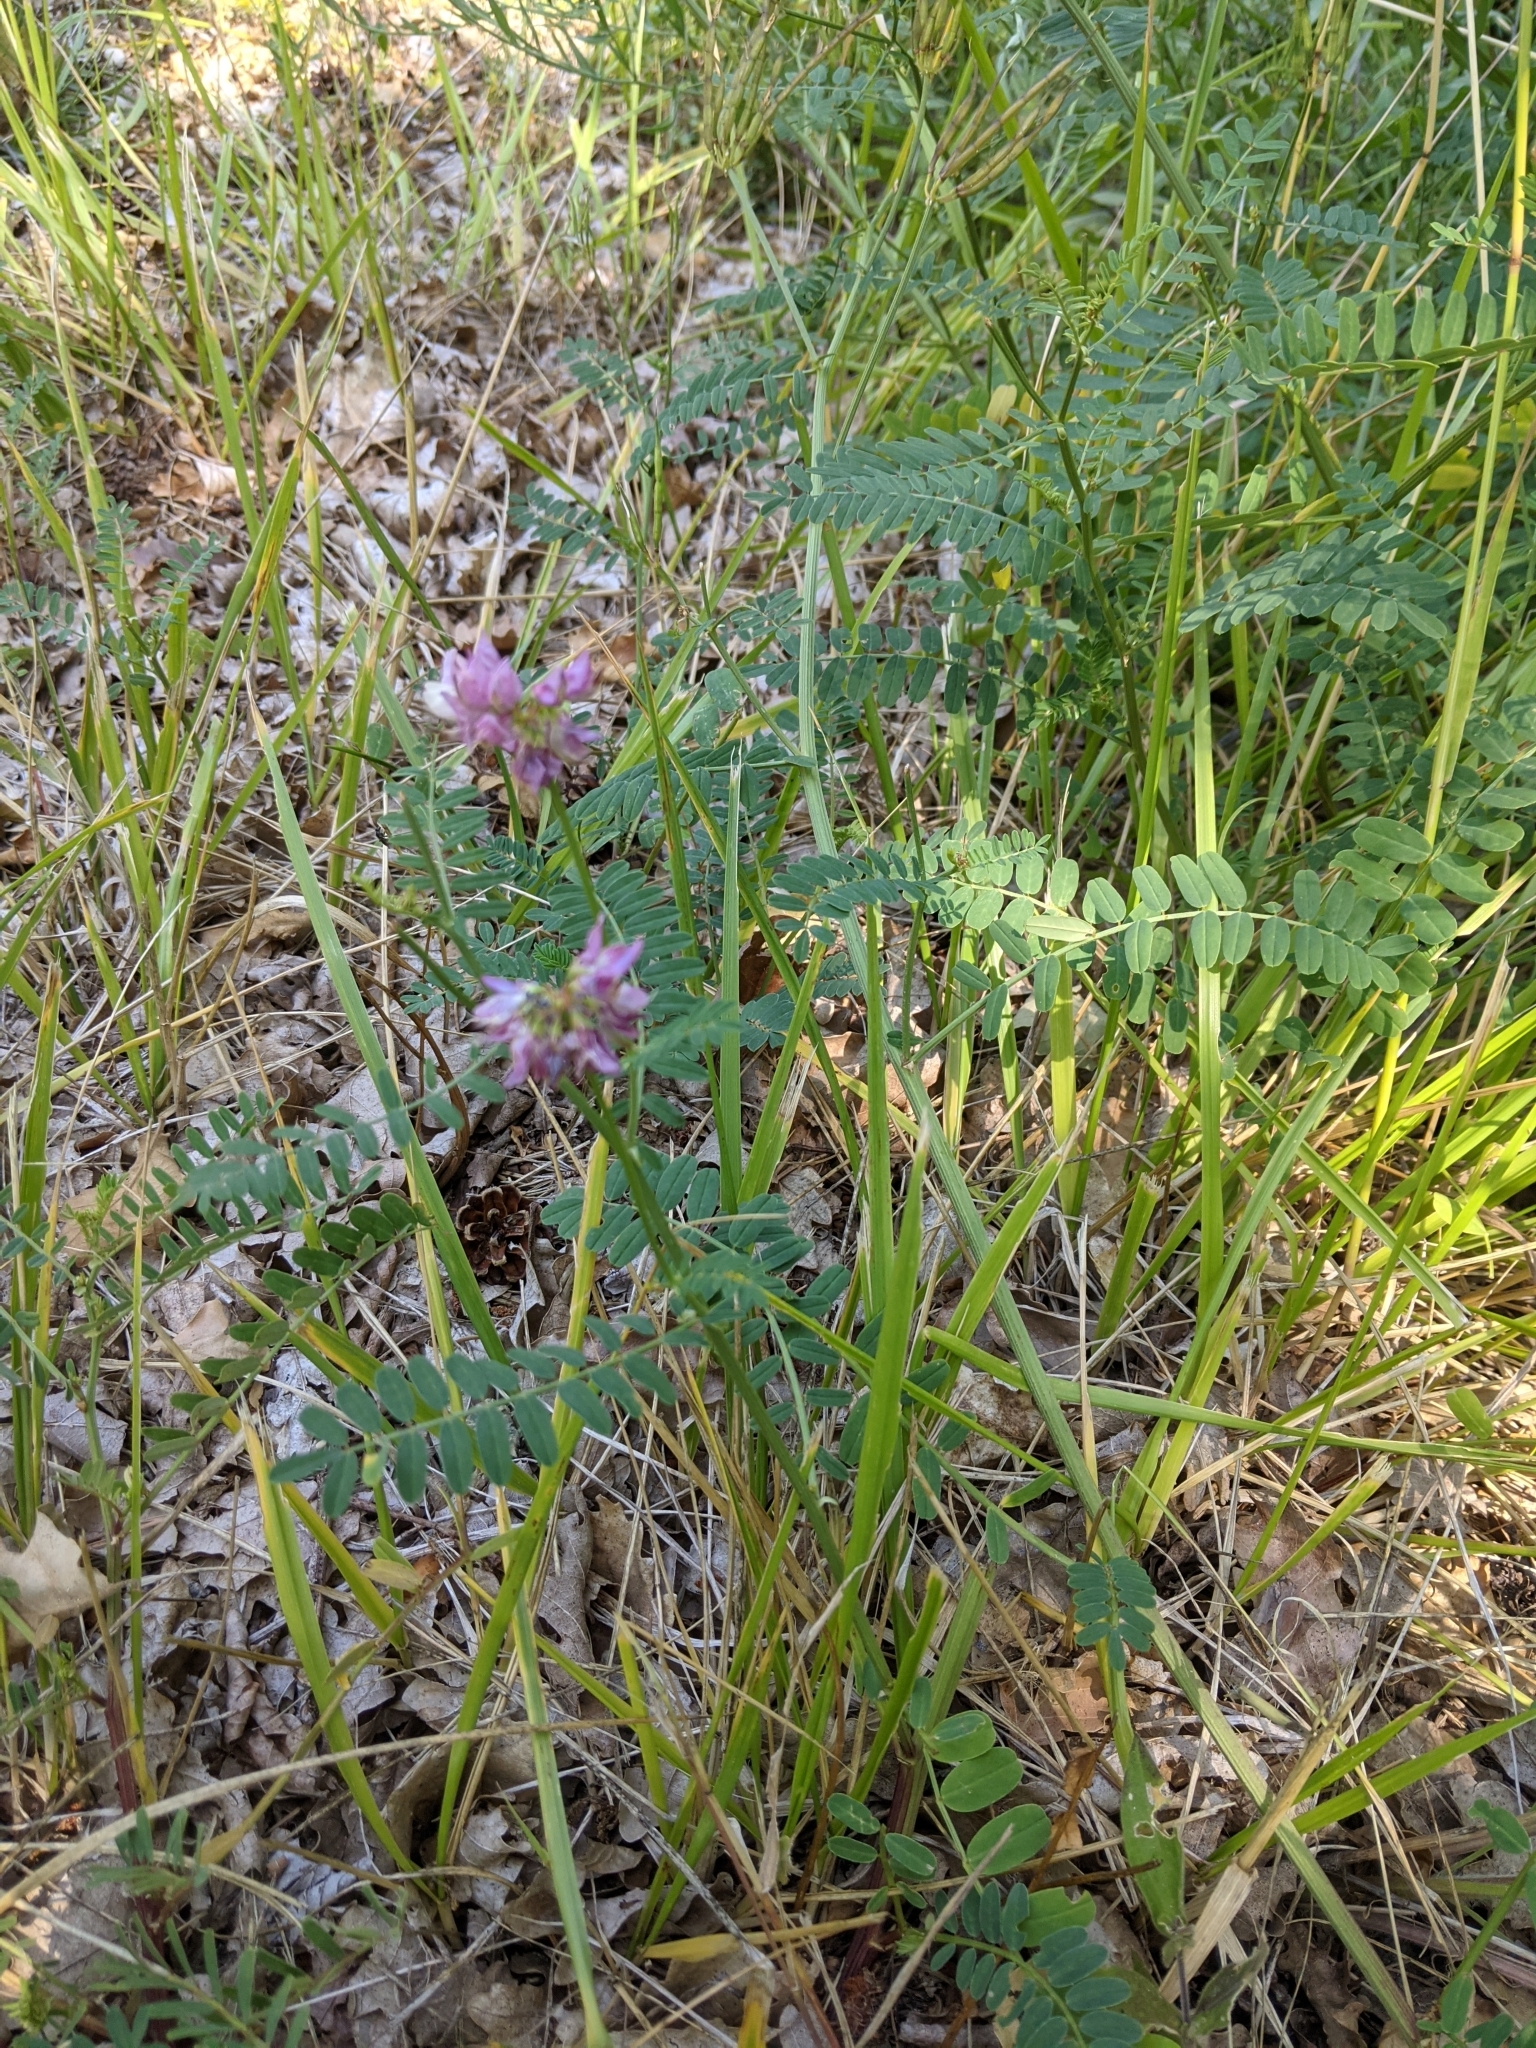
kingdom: Plantae
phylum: Tracheophyta
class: Magnoliopsida
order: Fabales
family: Fabaceae
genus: Coronilla
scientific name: Coronilla varia
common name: Crownvetch
